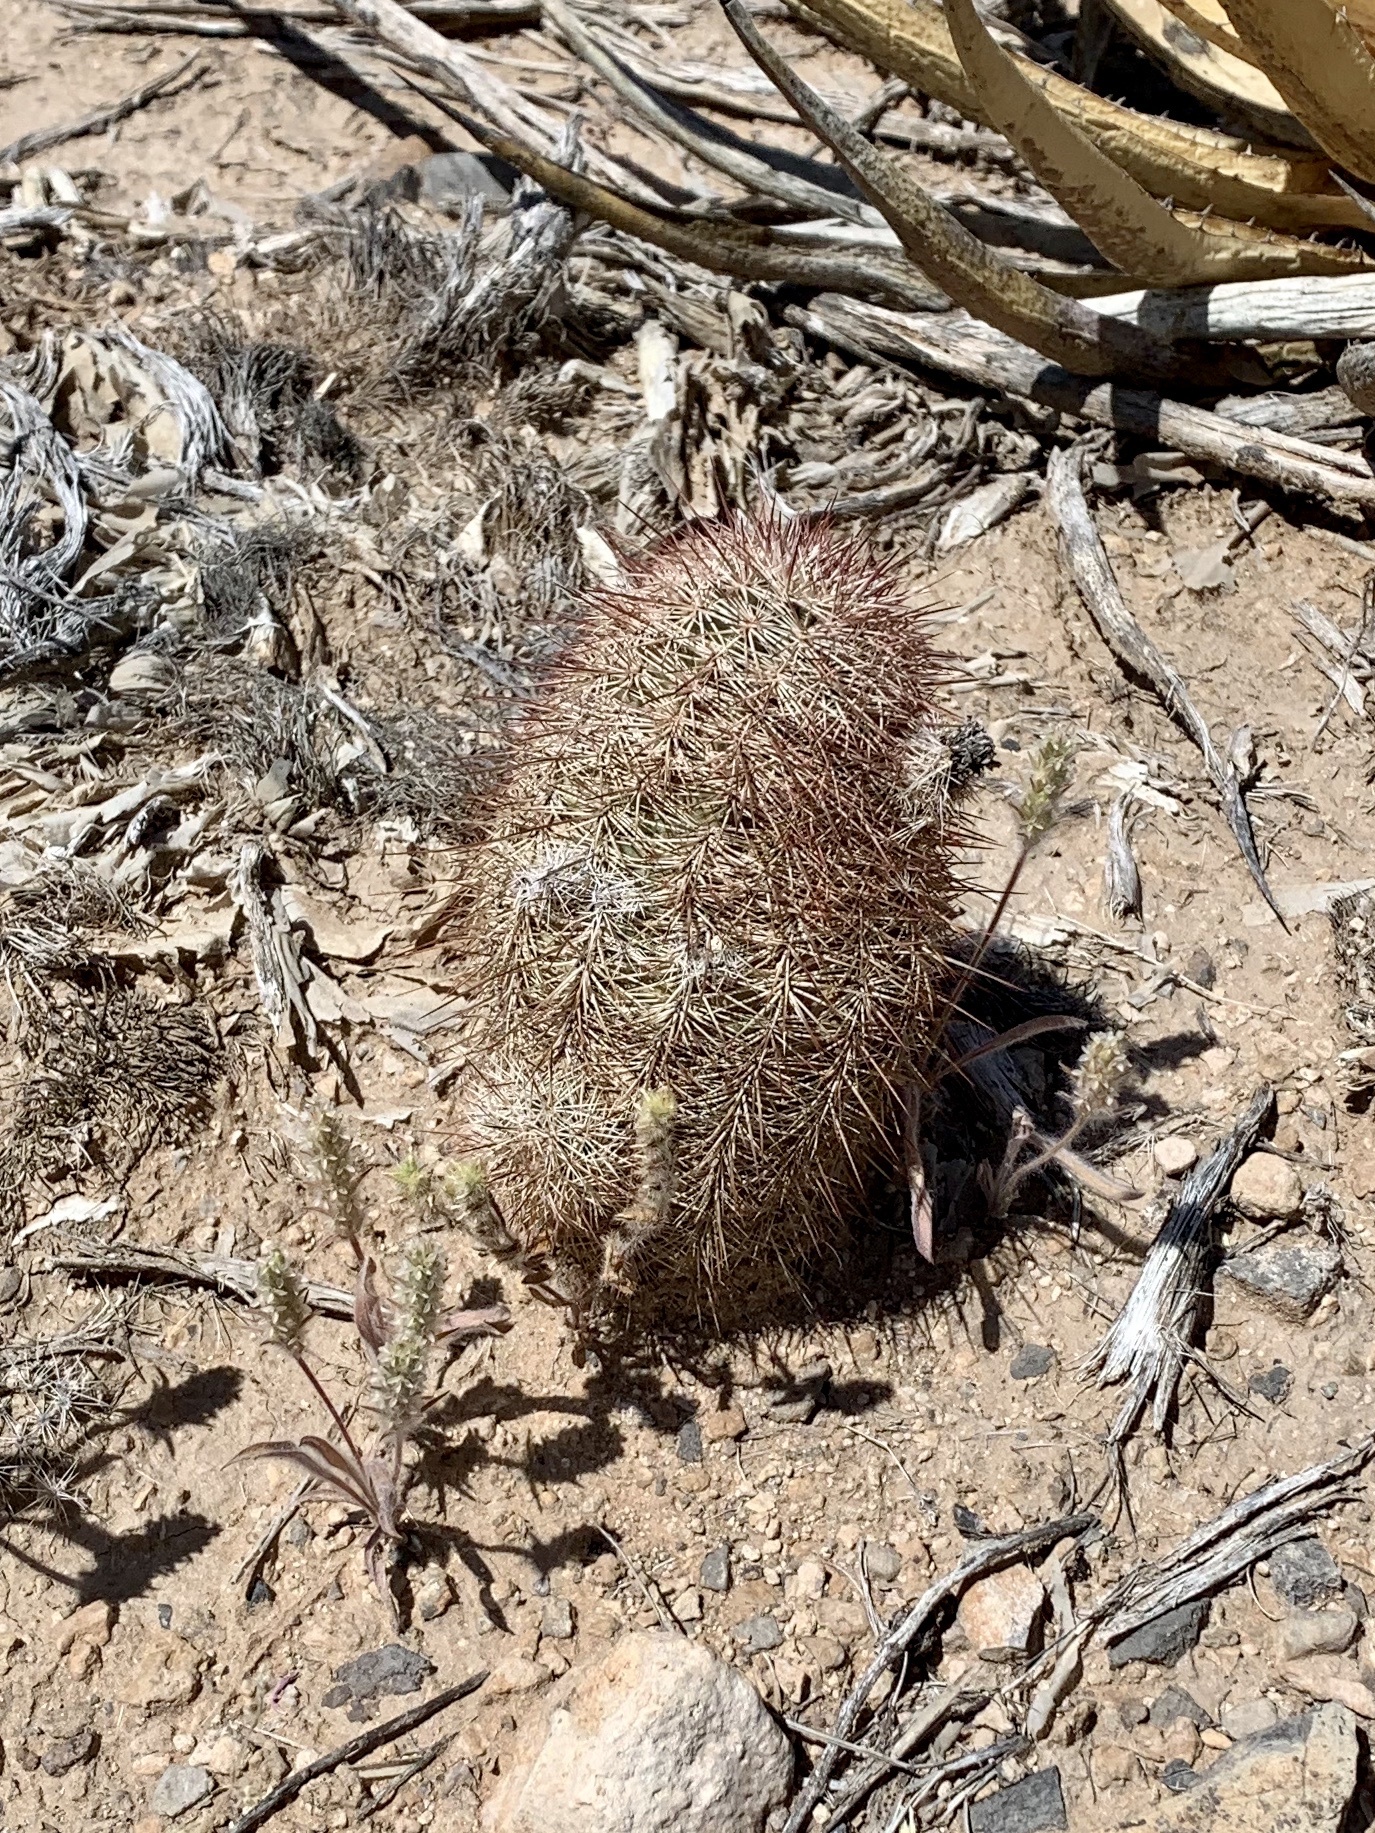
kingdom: Plantae
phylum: Tracheophyta
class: Magnoliopsida
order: Caryophyllales
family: Cactaceae
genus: Echinocereus
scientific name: Echinocereus dasyacanthus
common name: Spiny hedgehog cactus
